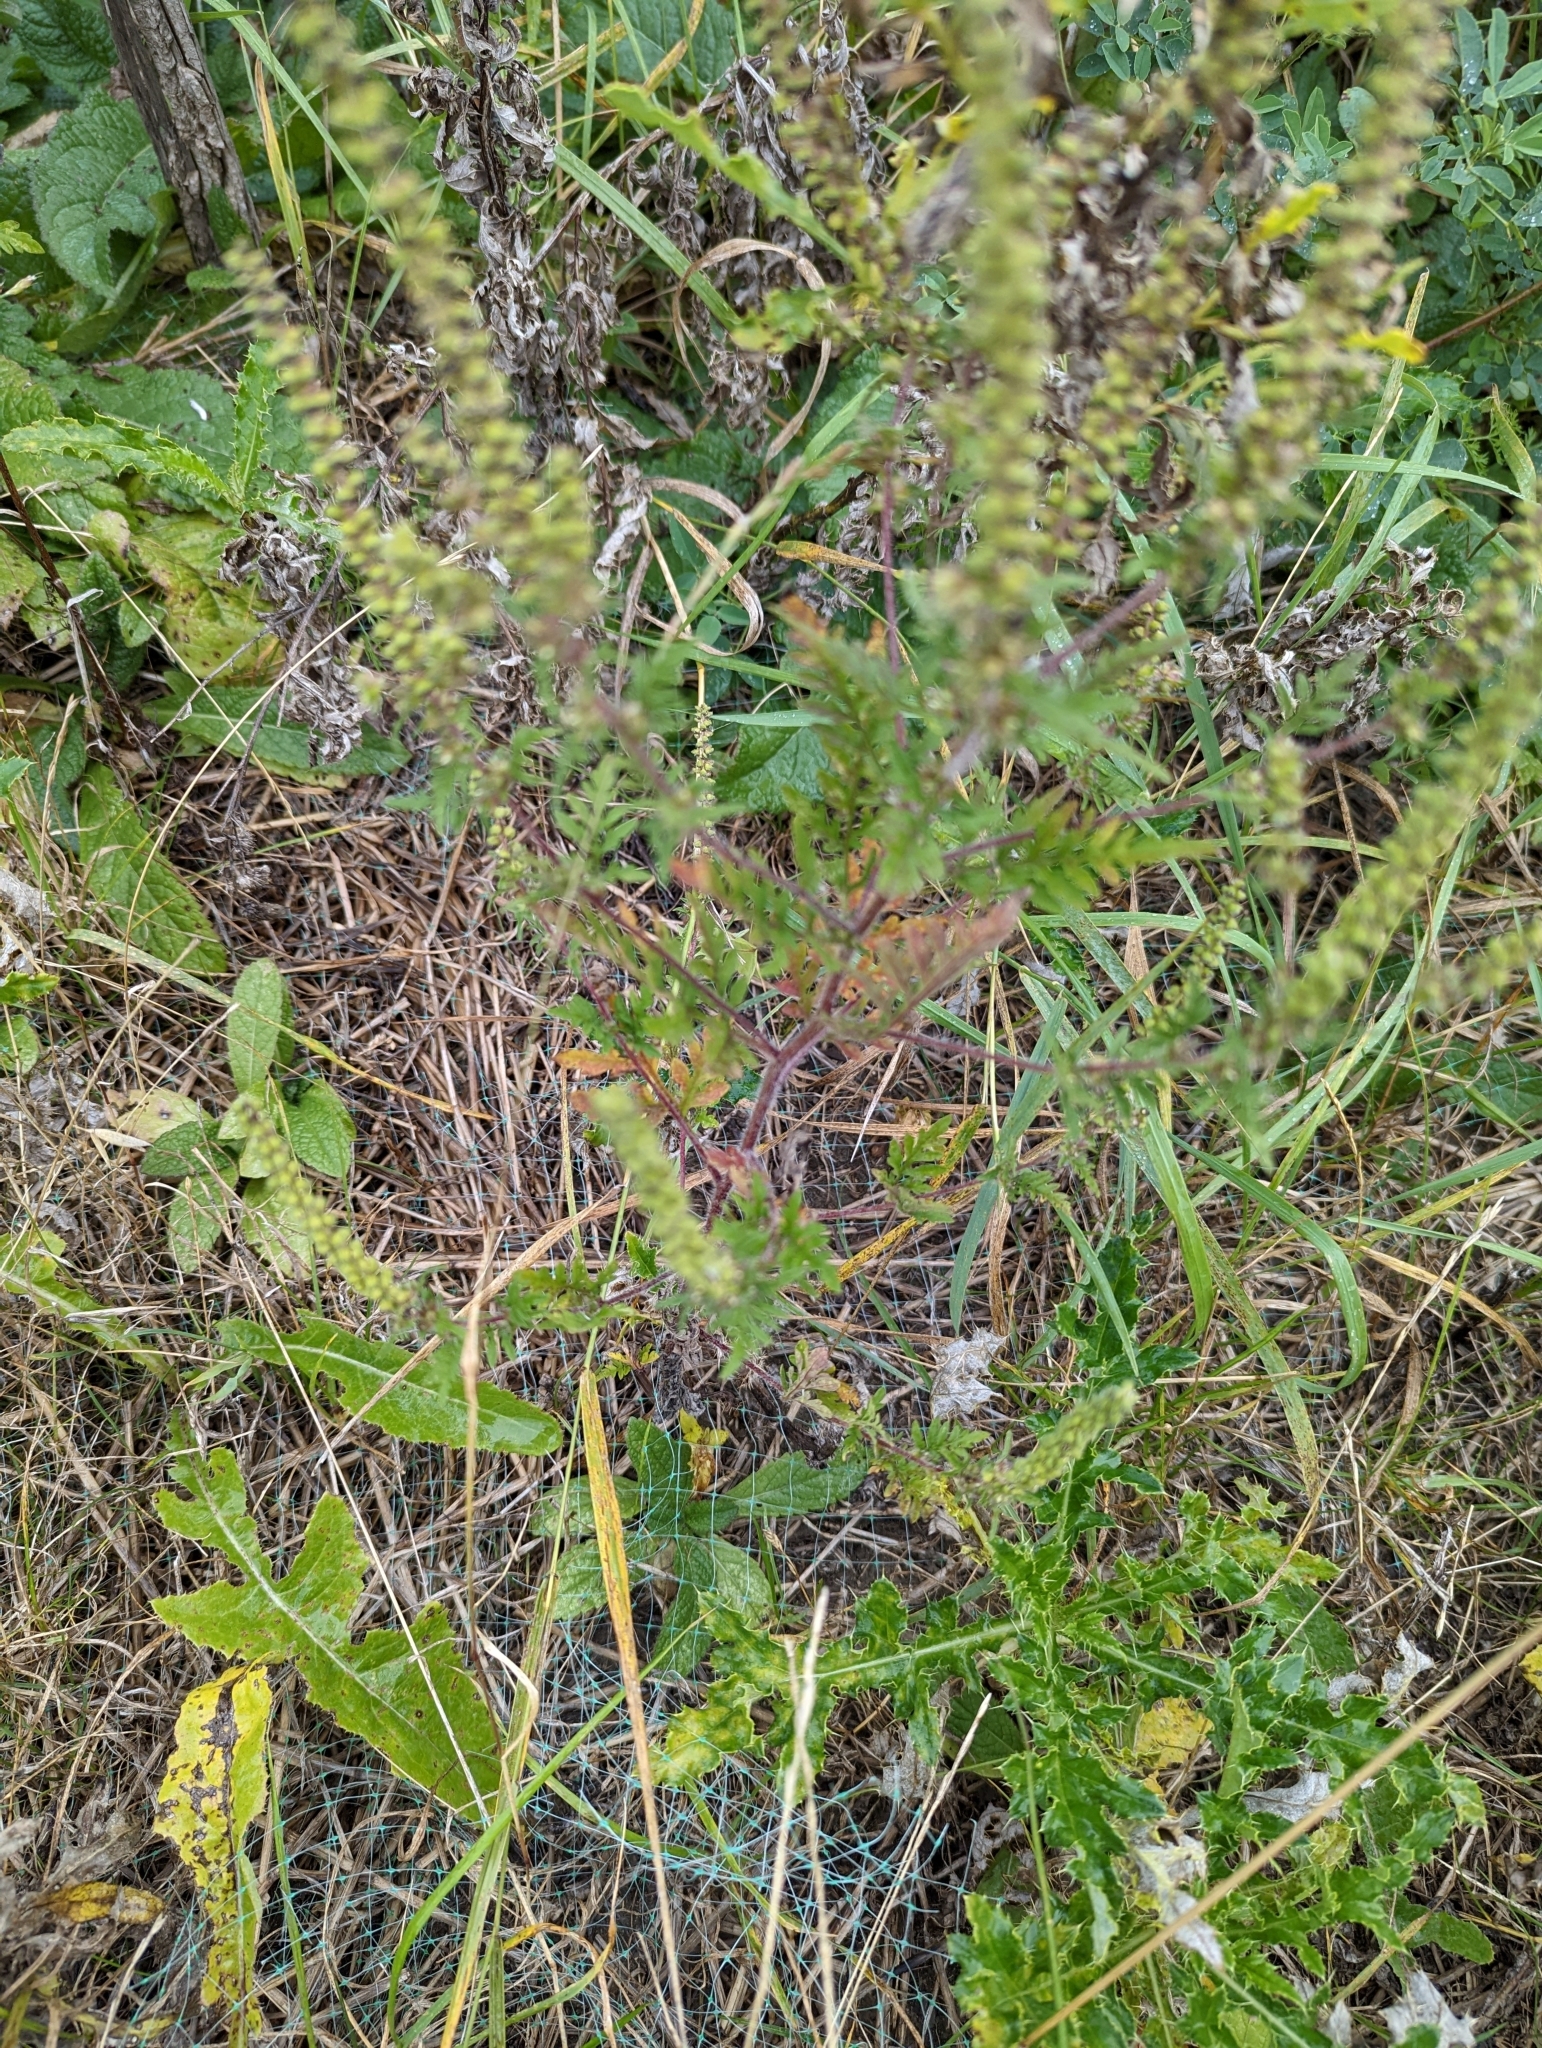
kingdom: Plantae
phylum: Tracheophyta
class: Magnoliopsida
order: Asterales
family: Asteraceae
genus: Ambrosia
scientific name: Ambrosia artemisiifolia
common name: Annual ragweed
